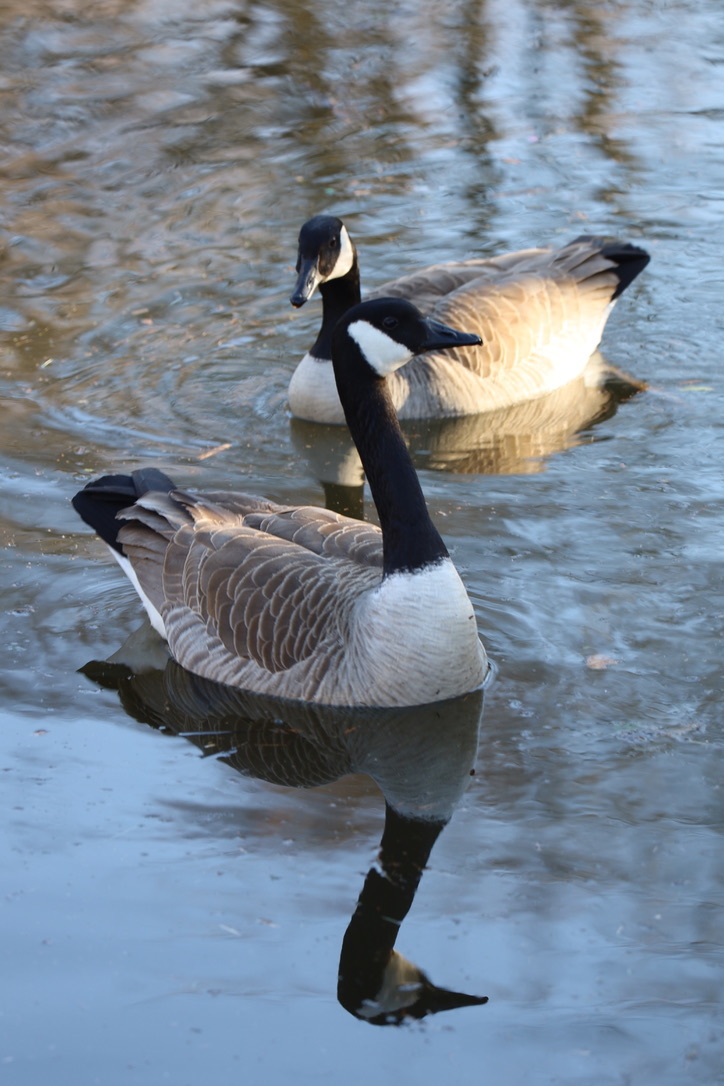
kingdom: Animalia
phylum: Chordata
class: Aves
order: Anseriformes
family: Anatidae
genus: Branta
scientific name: Branta canadensis
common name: Canada goose
